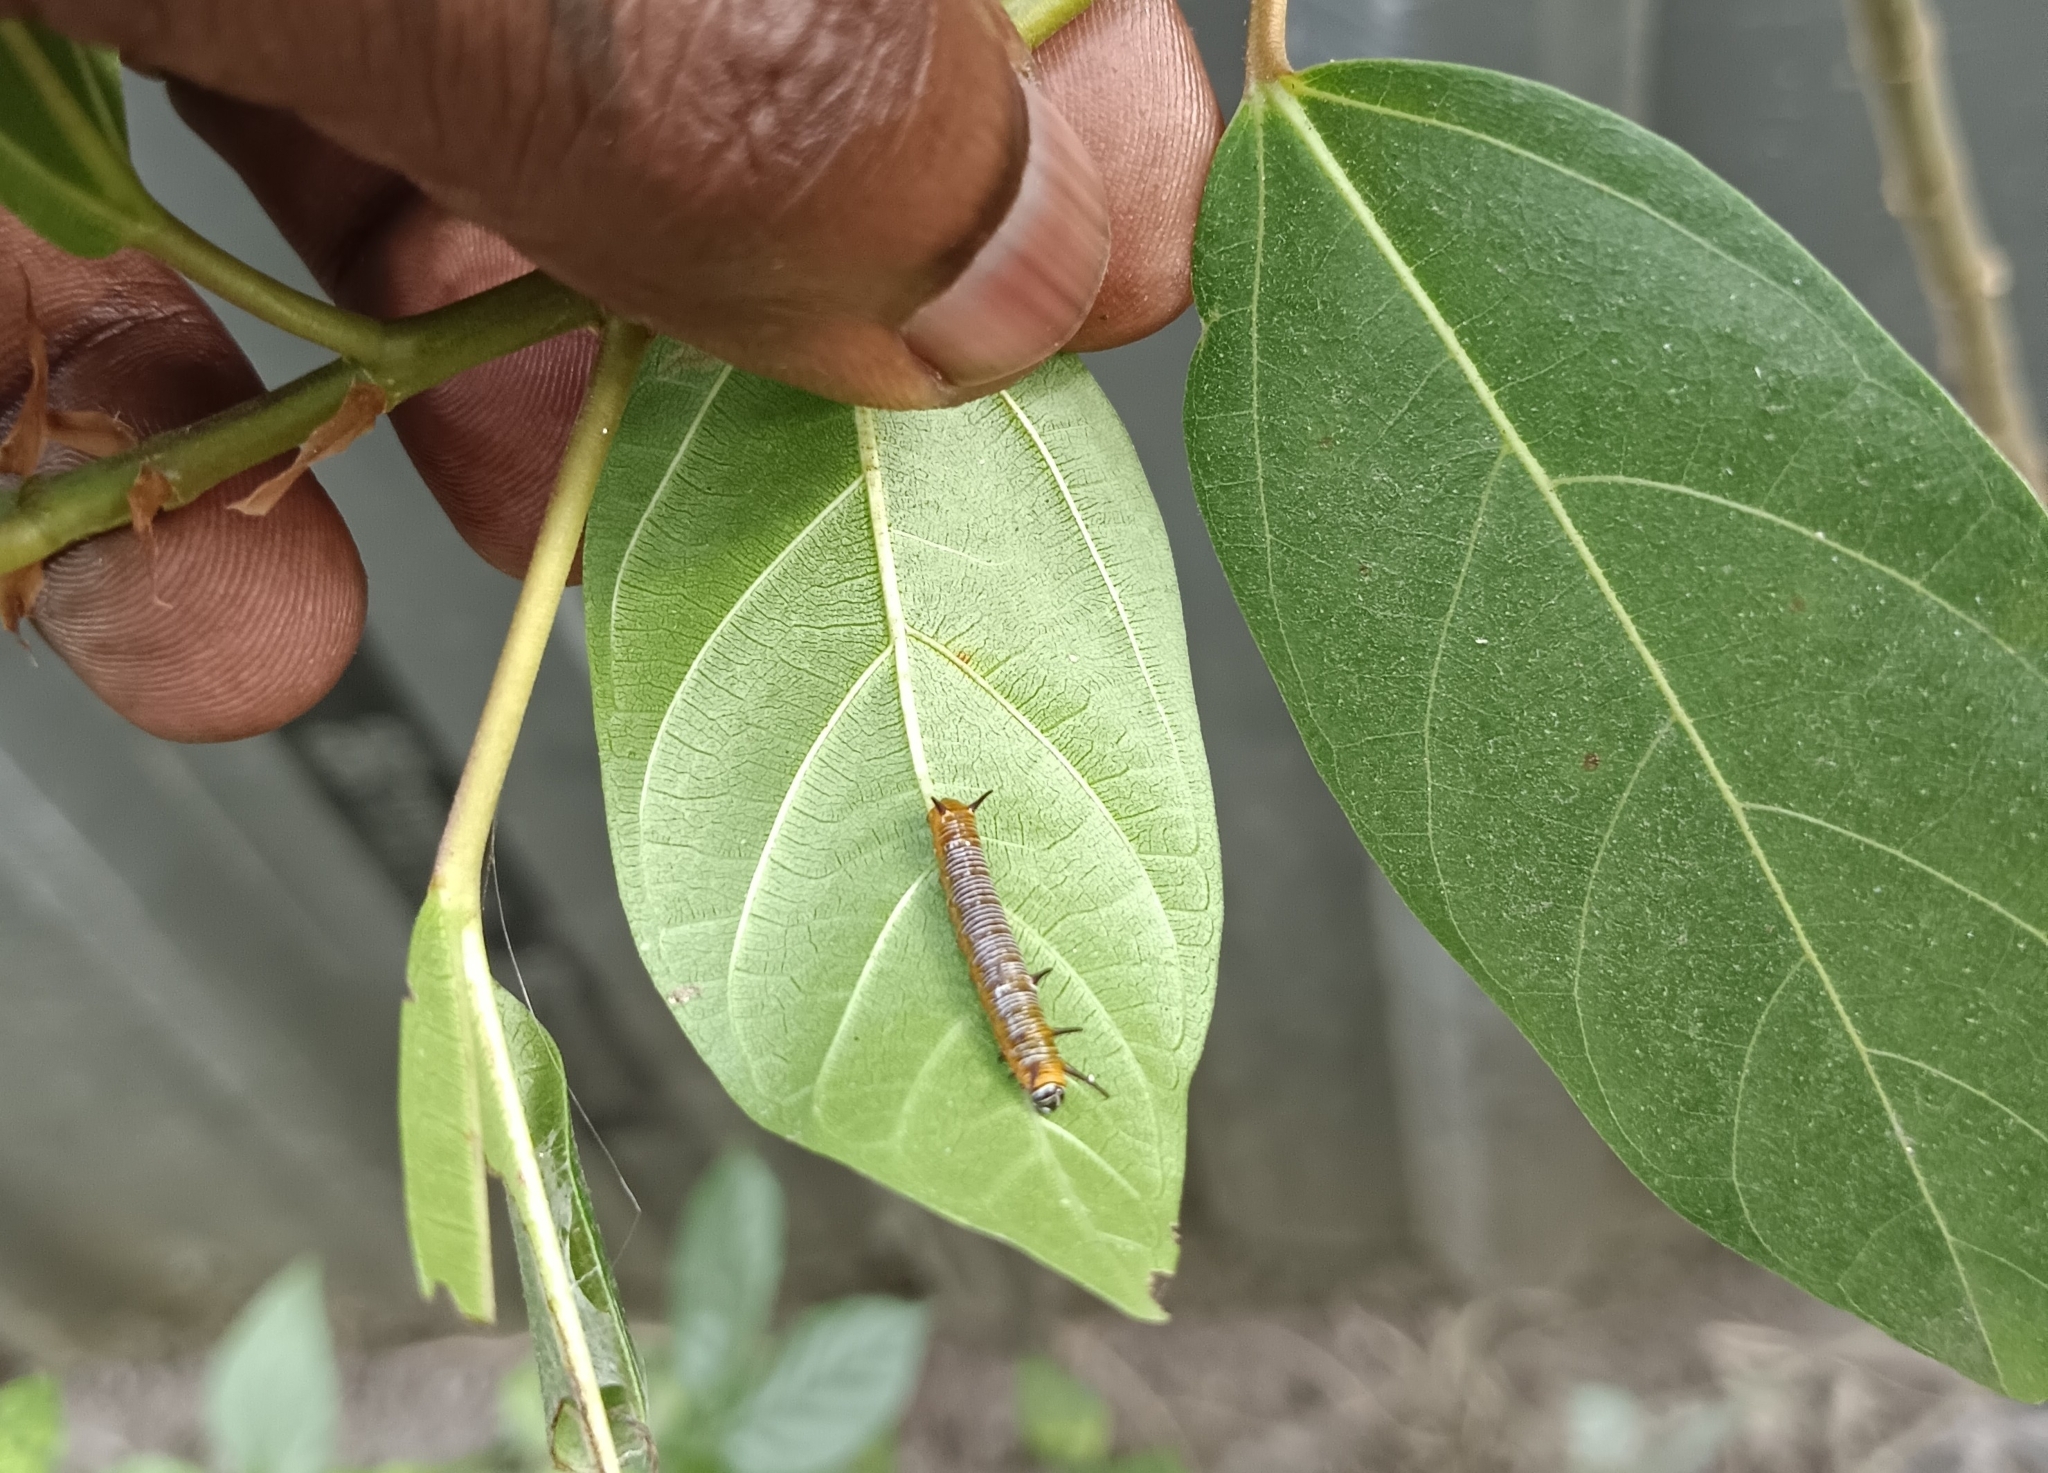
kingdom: Animalia
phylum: Arthropoda
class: Insecta
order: Lepidoptera
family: Nymphalidae
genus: Euploea
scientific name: Euploea core
